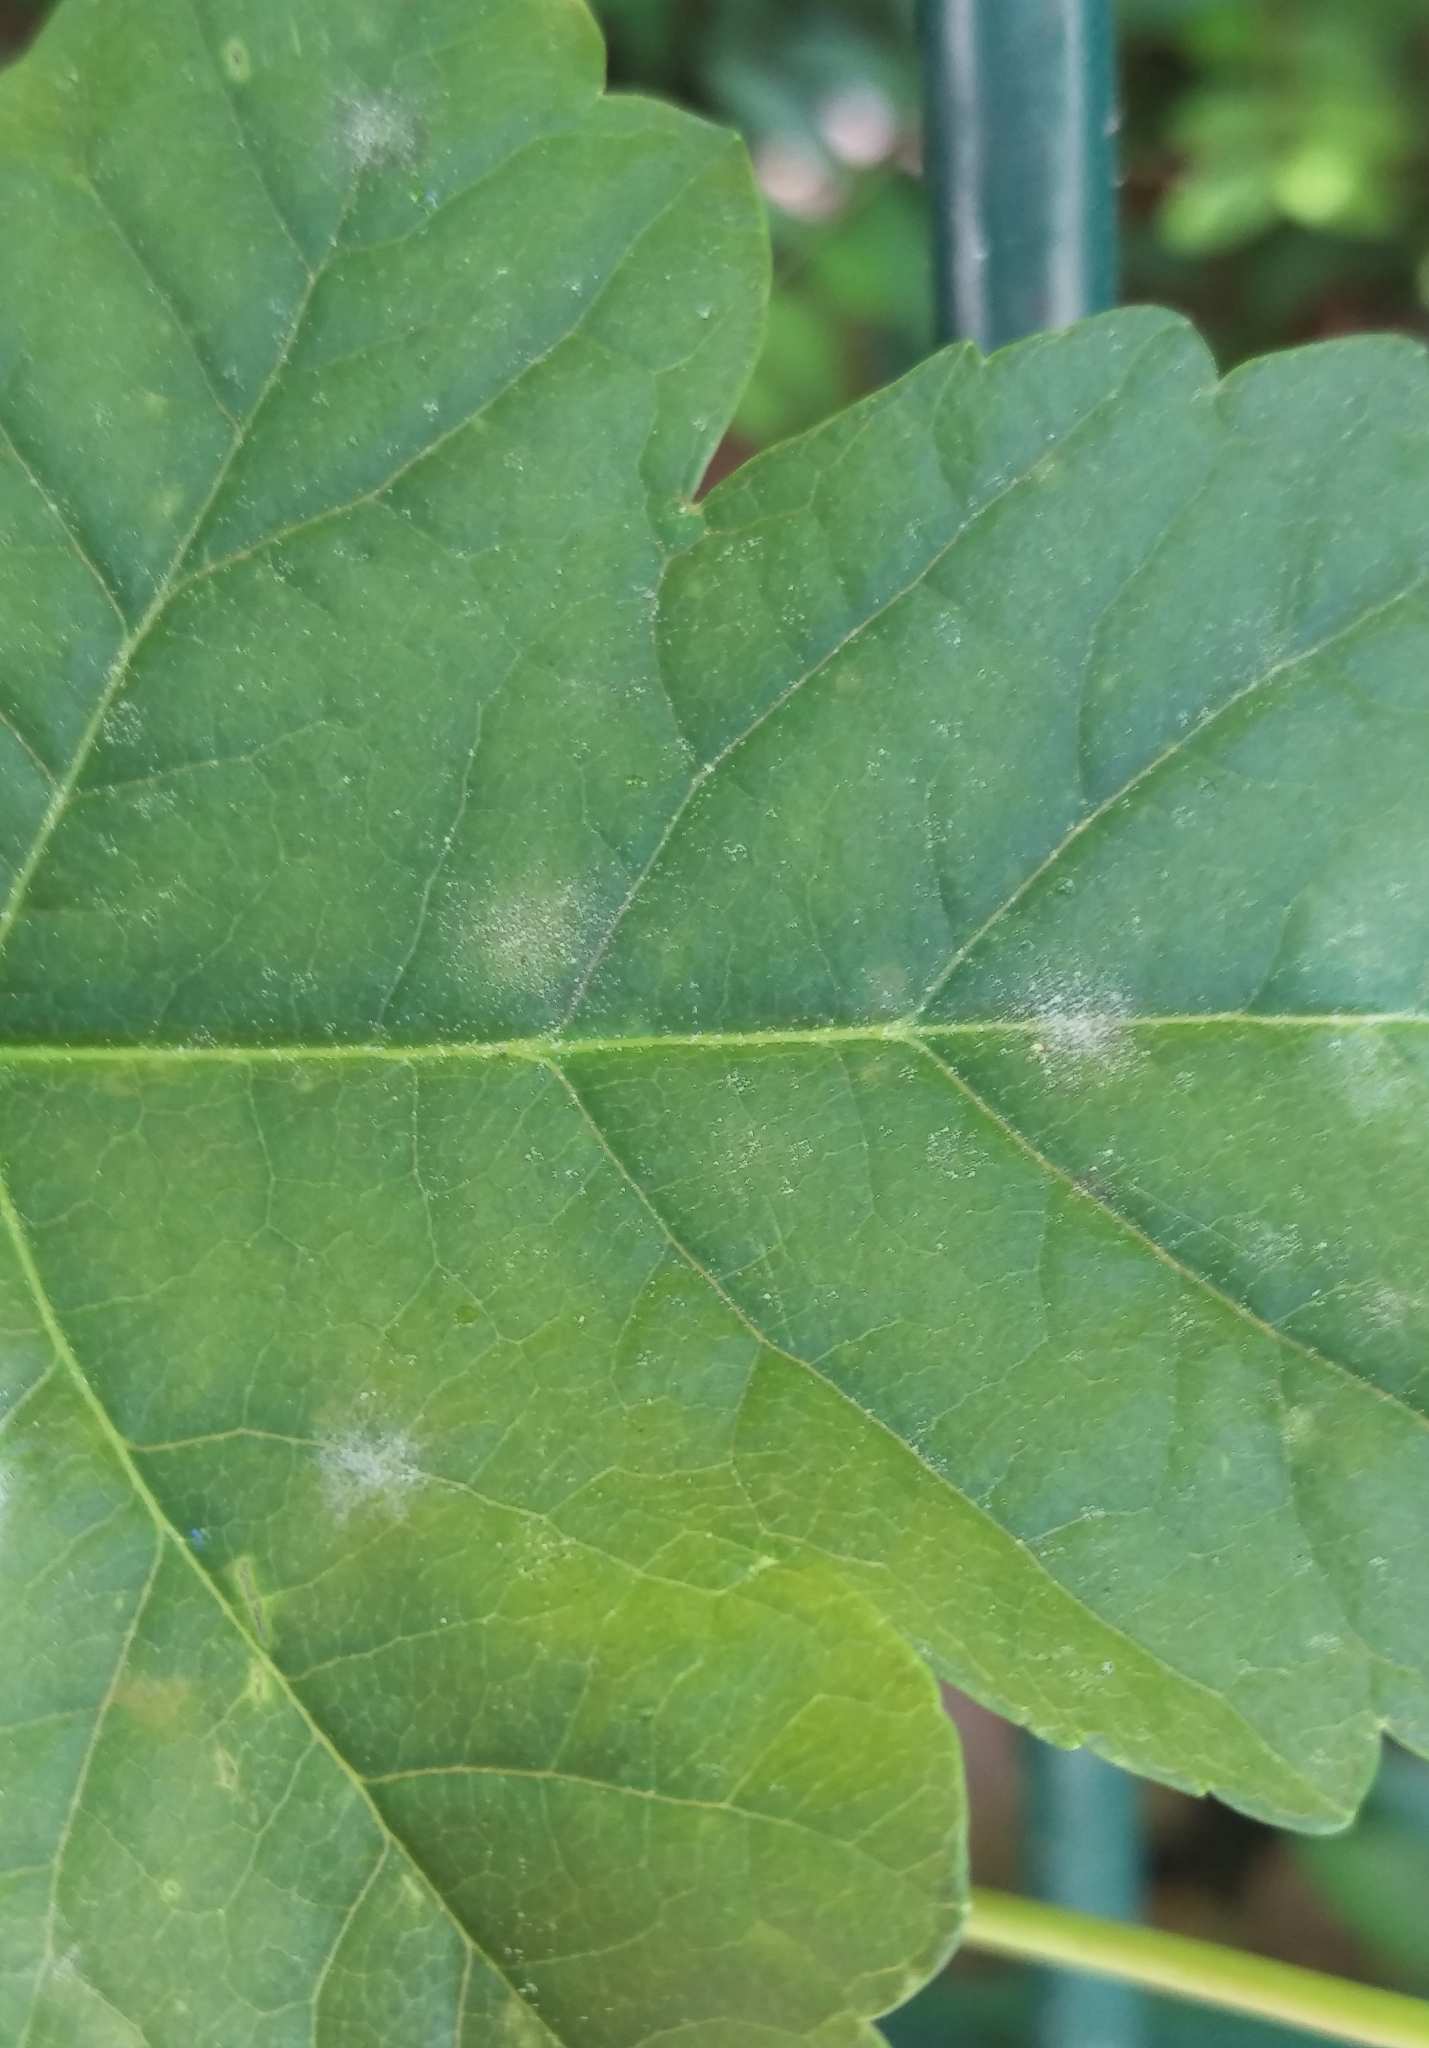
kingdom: Fungi
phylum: Ascomycota
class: Leotiomycetes
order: Helotiales
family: Erysiphaceae
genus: Sawadaea
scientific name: Sawadaea bicornis
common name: Maple mildew
